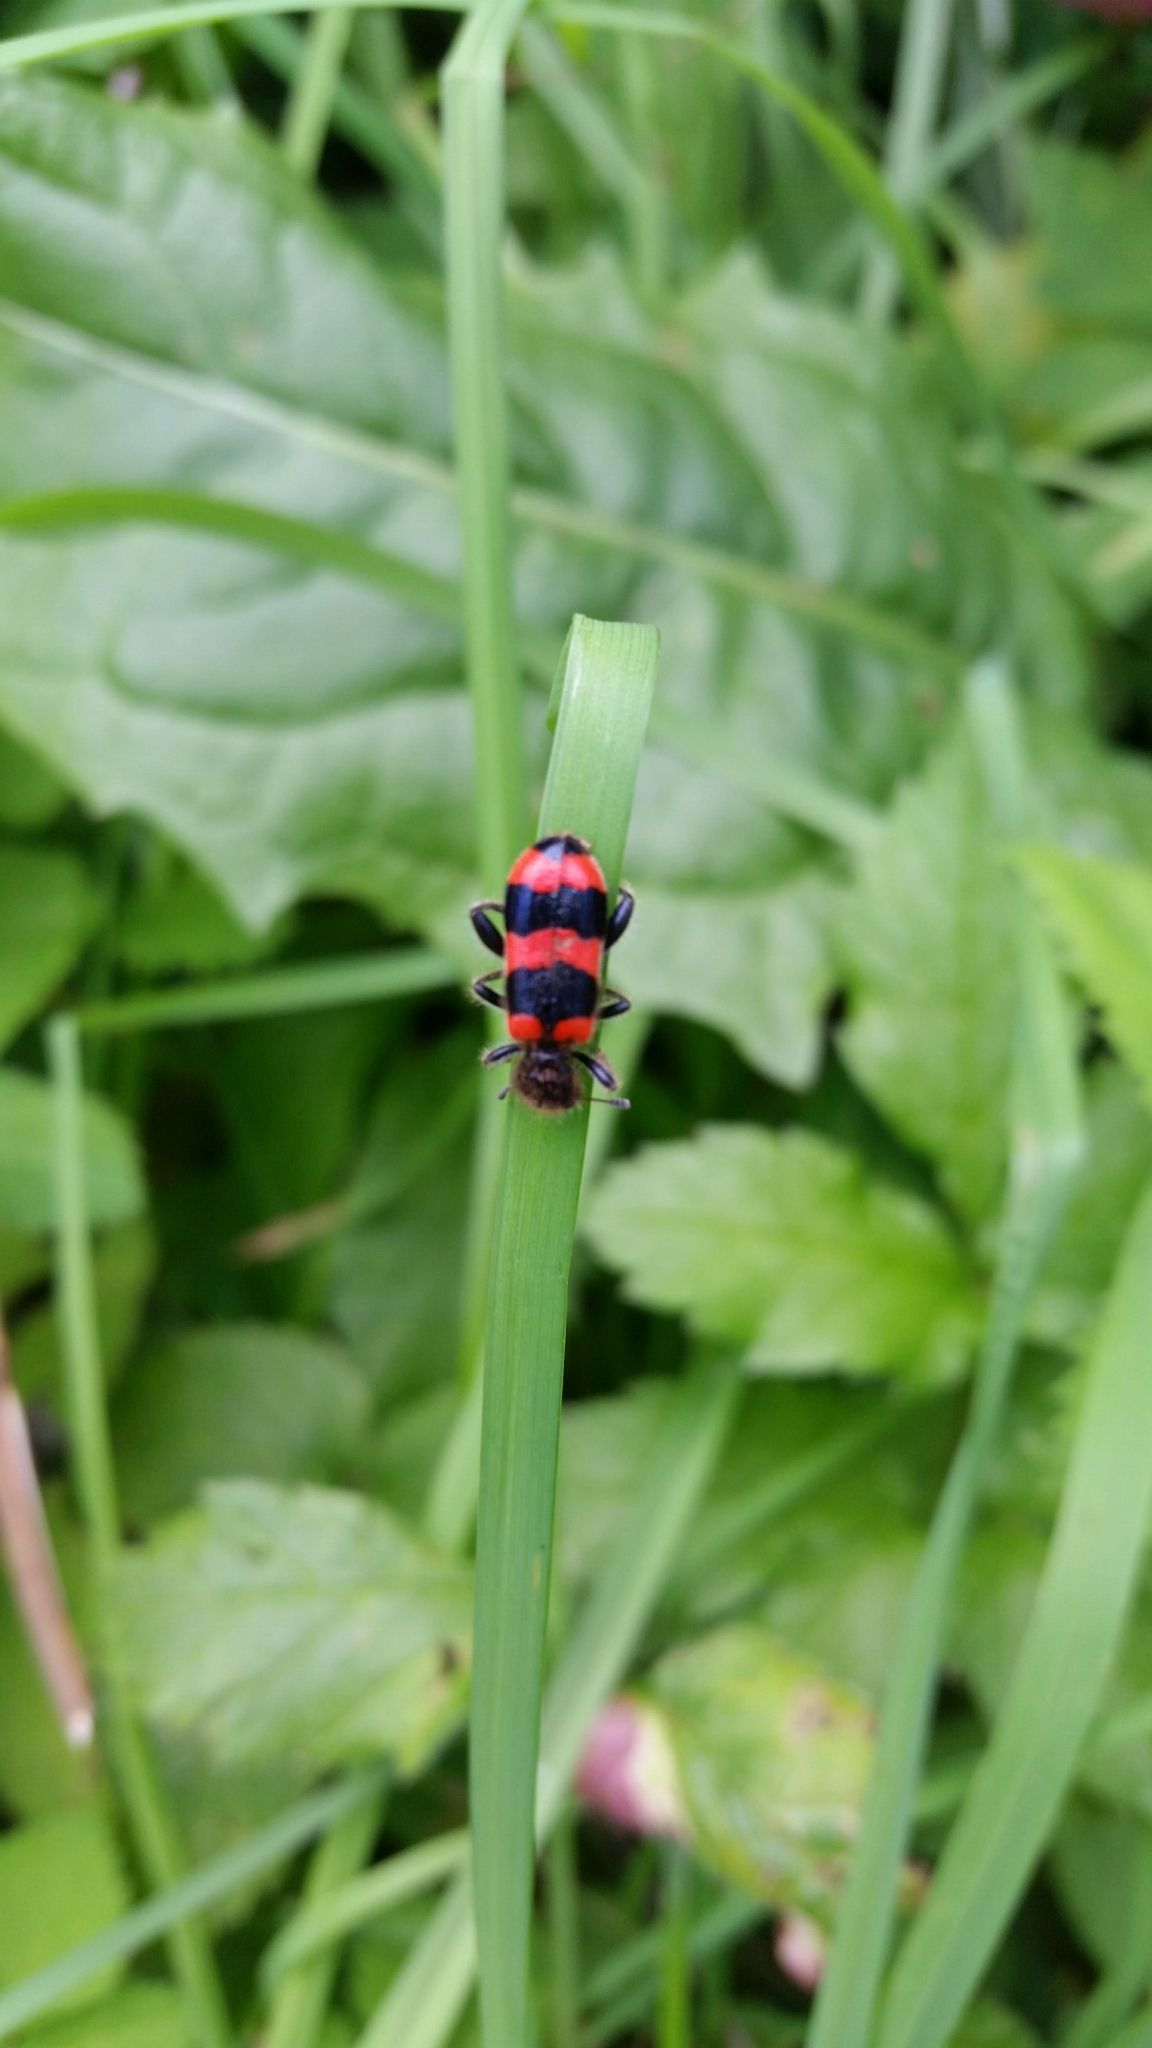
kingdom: Animalia
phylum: Arthropoda
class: Insecta
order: Coleoptera
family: Cleridae
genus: Trichodes
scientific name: Trichodes apiarius
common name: Bee-eating beetle
